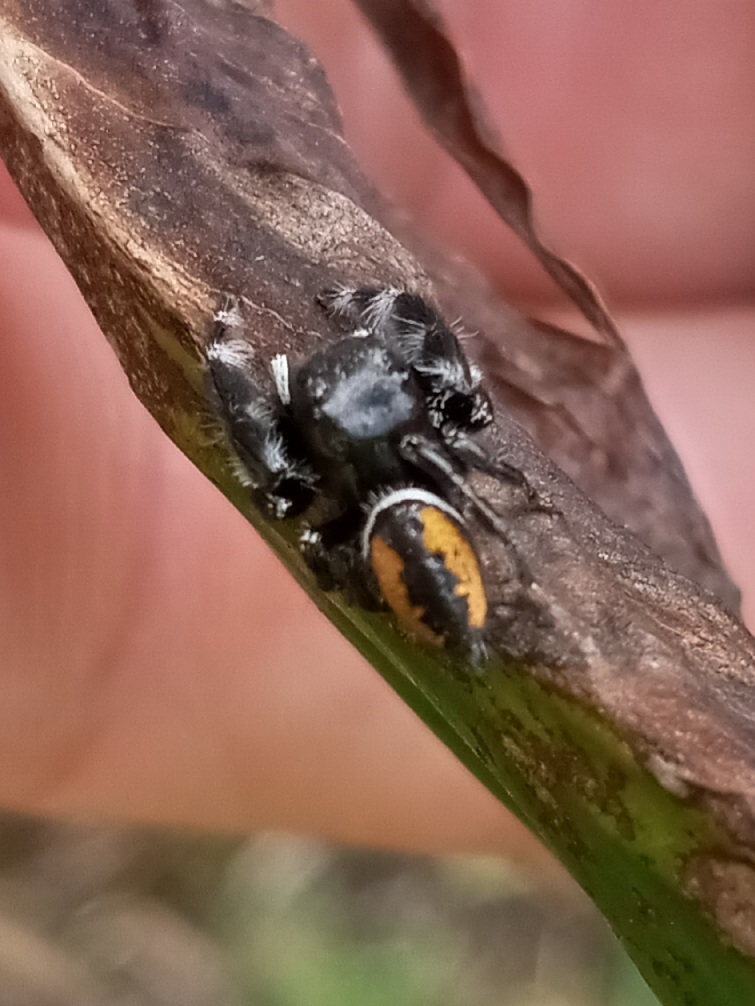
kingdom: Animalia
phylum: Arthropoda
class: Arachnida
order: Araneae
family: Salticidae
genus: Phidippus
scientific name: Phidippus clarus
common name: Brilliant jumping spider
